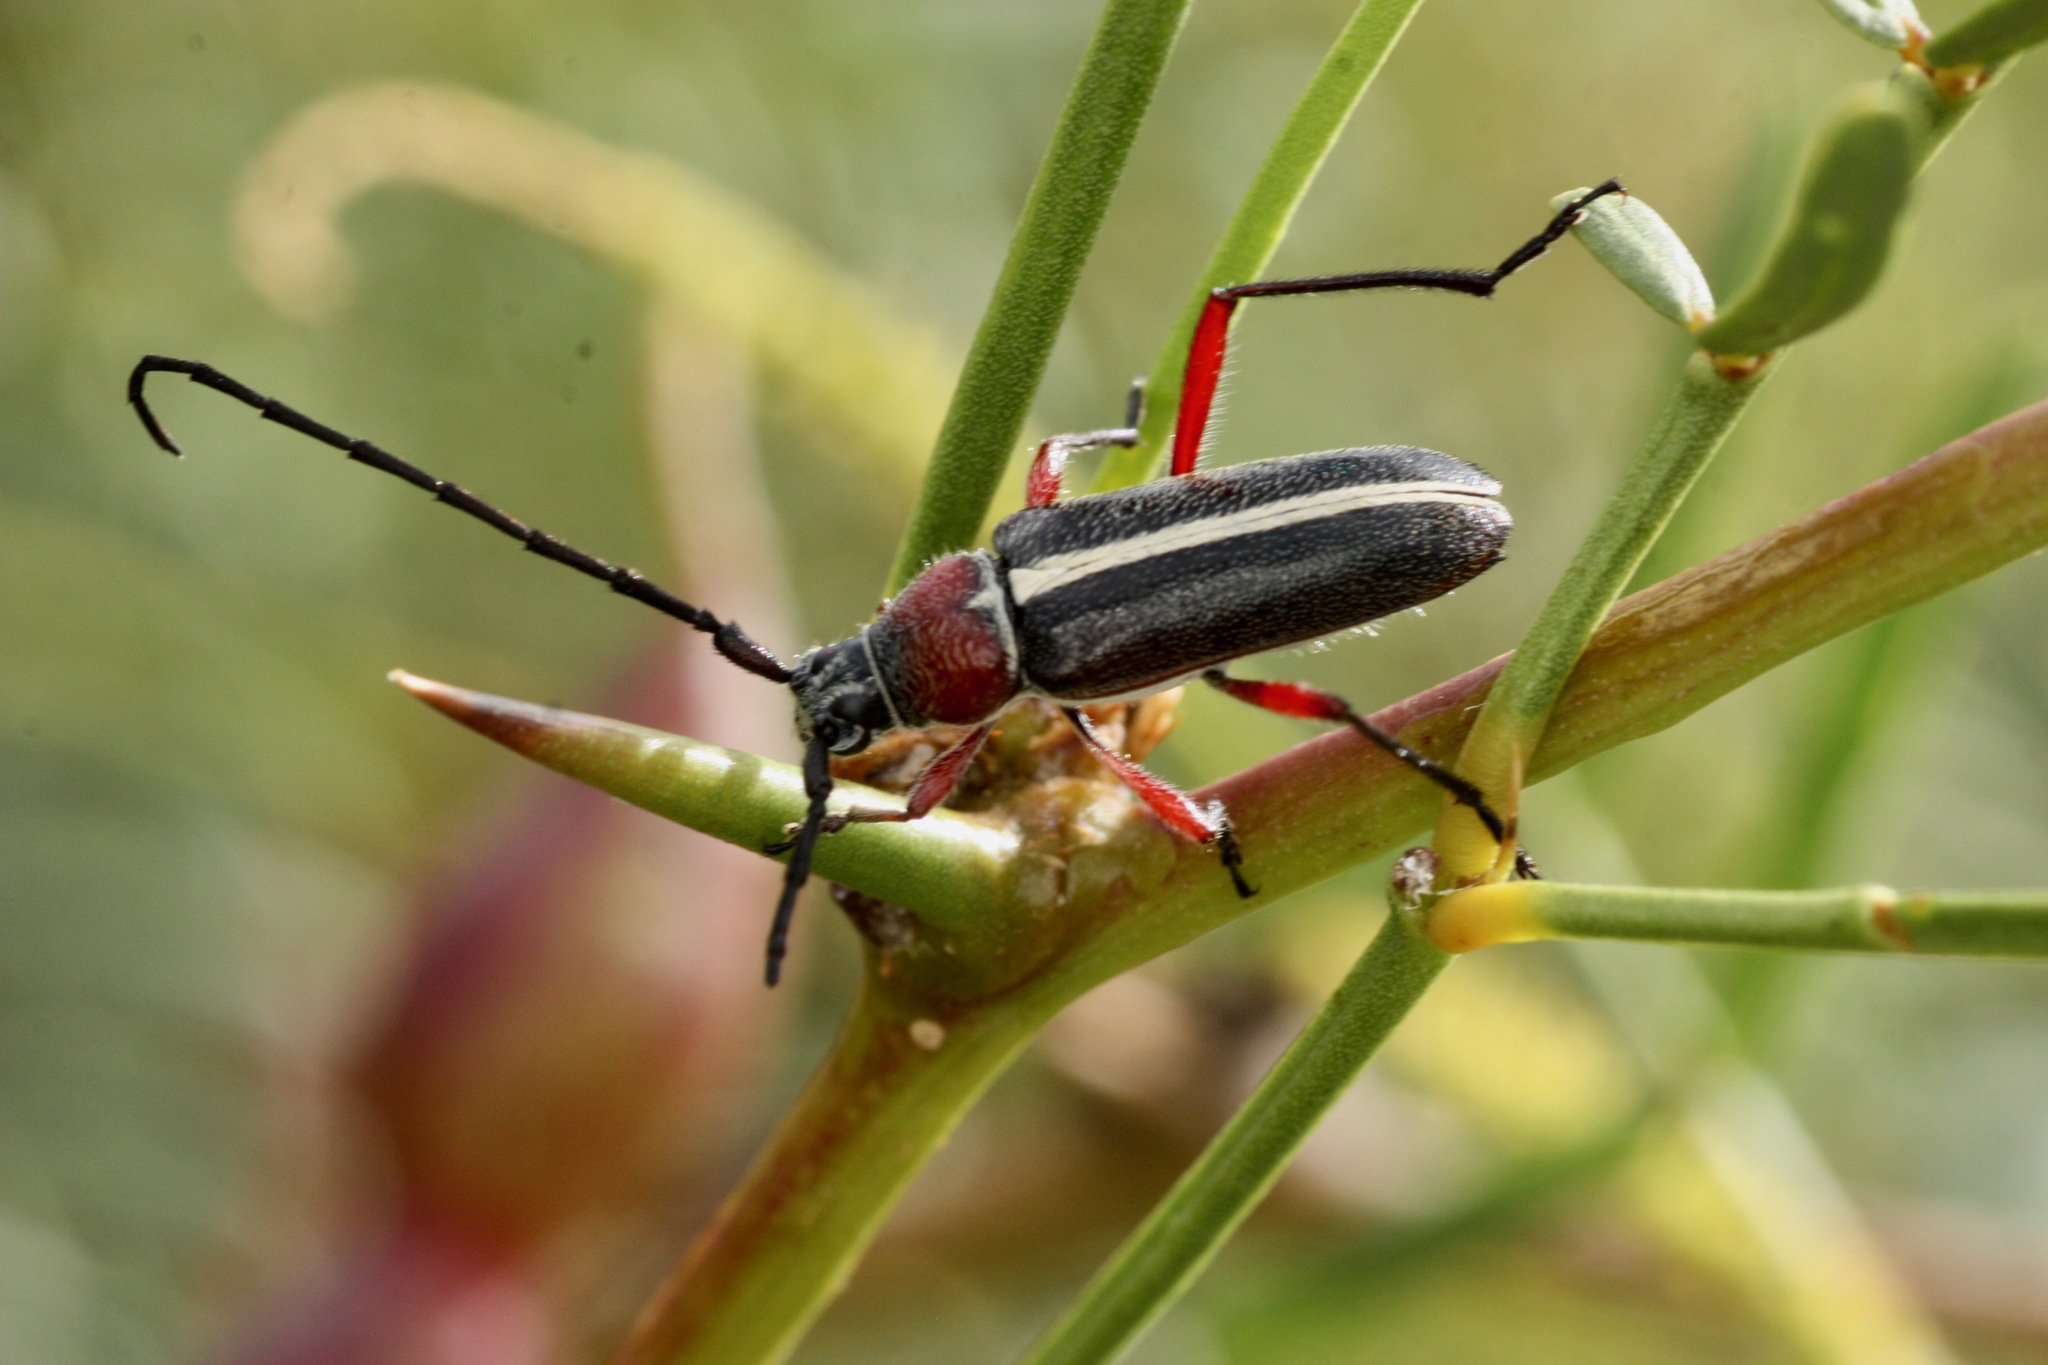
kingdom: Animalia
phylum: Arthropoda
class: Insecta
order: Coleoptera
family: Cerambycidae
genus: Plionoma
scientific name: Plionoma suturalis
